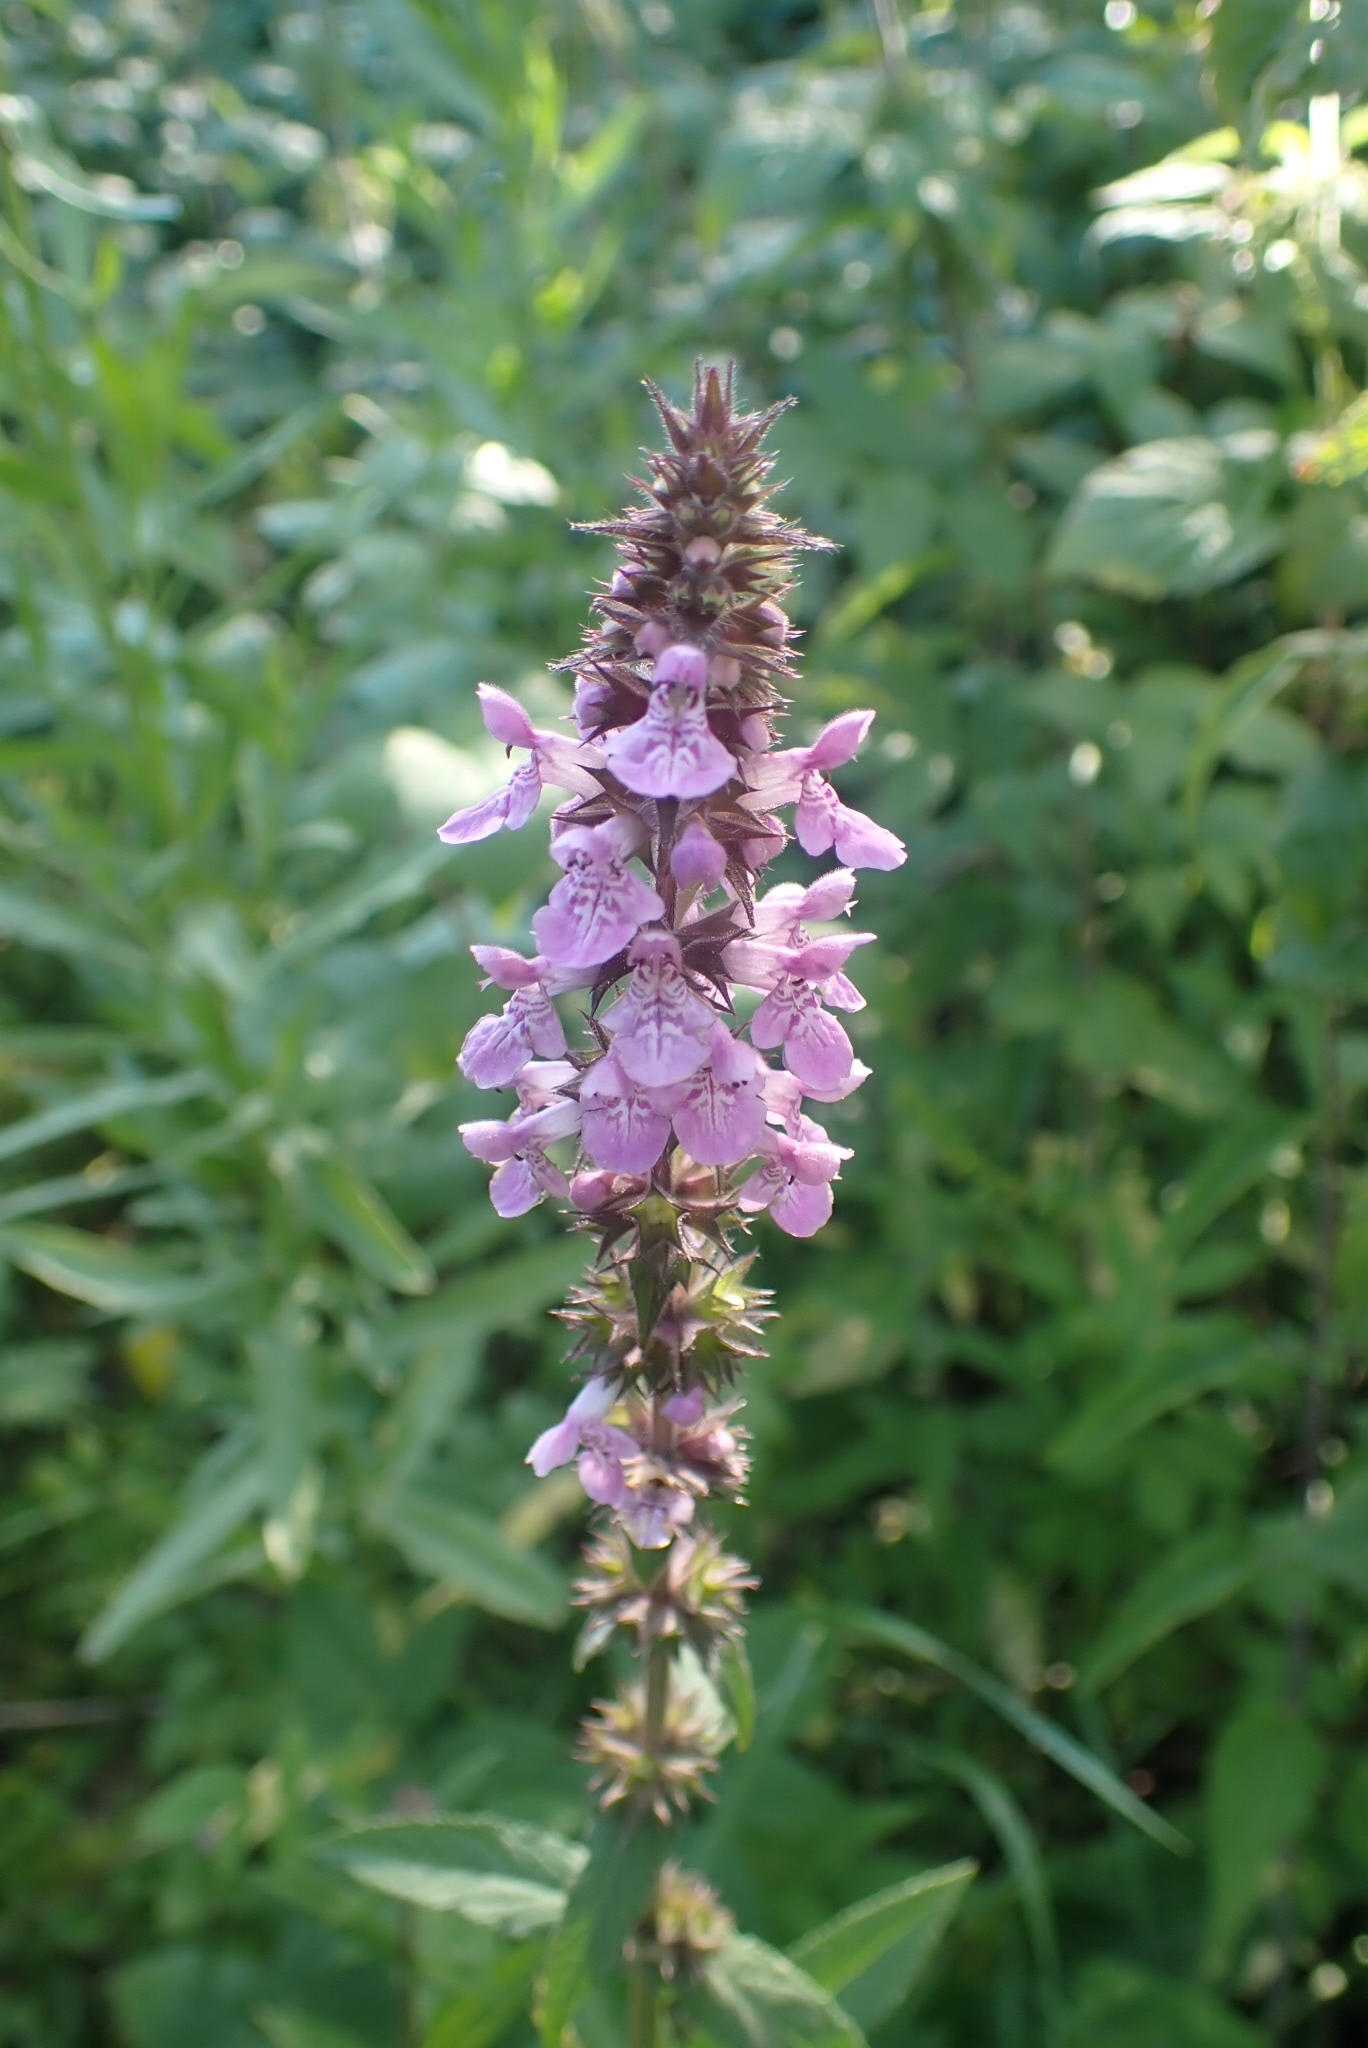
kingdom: Plantae
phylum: Tracheophyta
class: Magnoliopsida
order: Lamiales
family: Lamiaceae
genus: Stachys
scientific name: Stachys palustris
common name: Marsh woundwort
